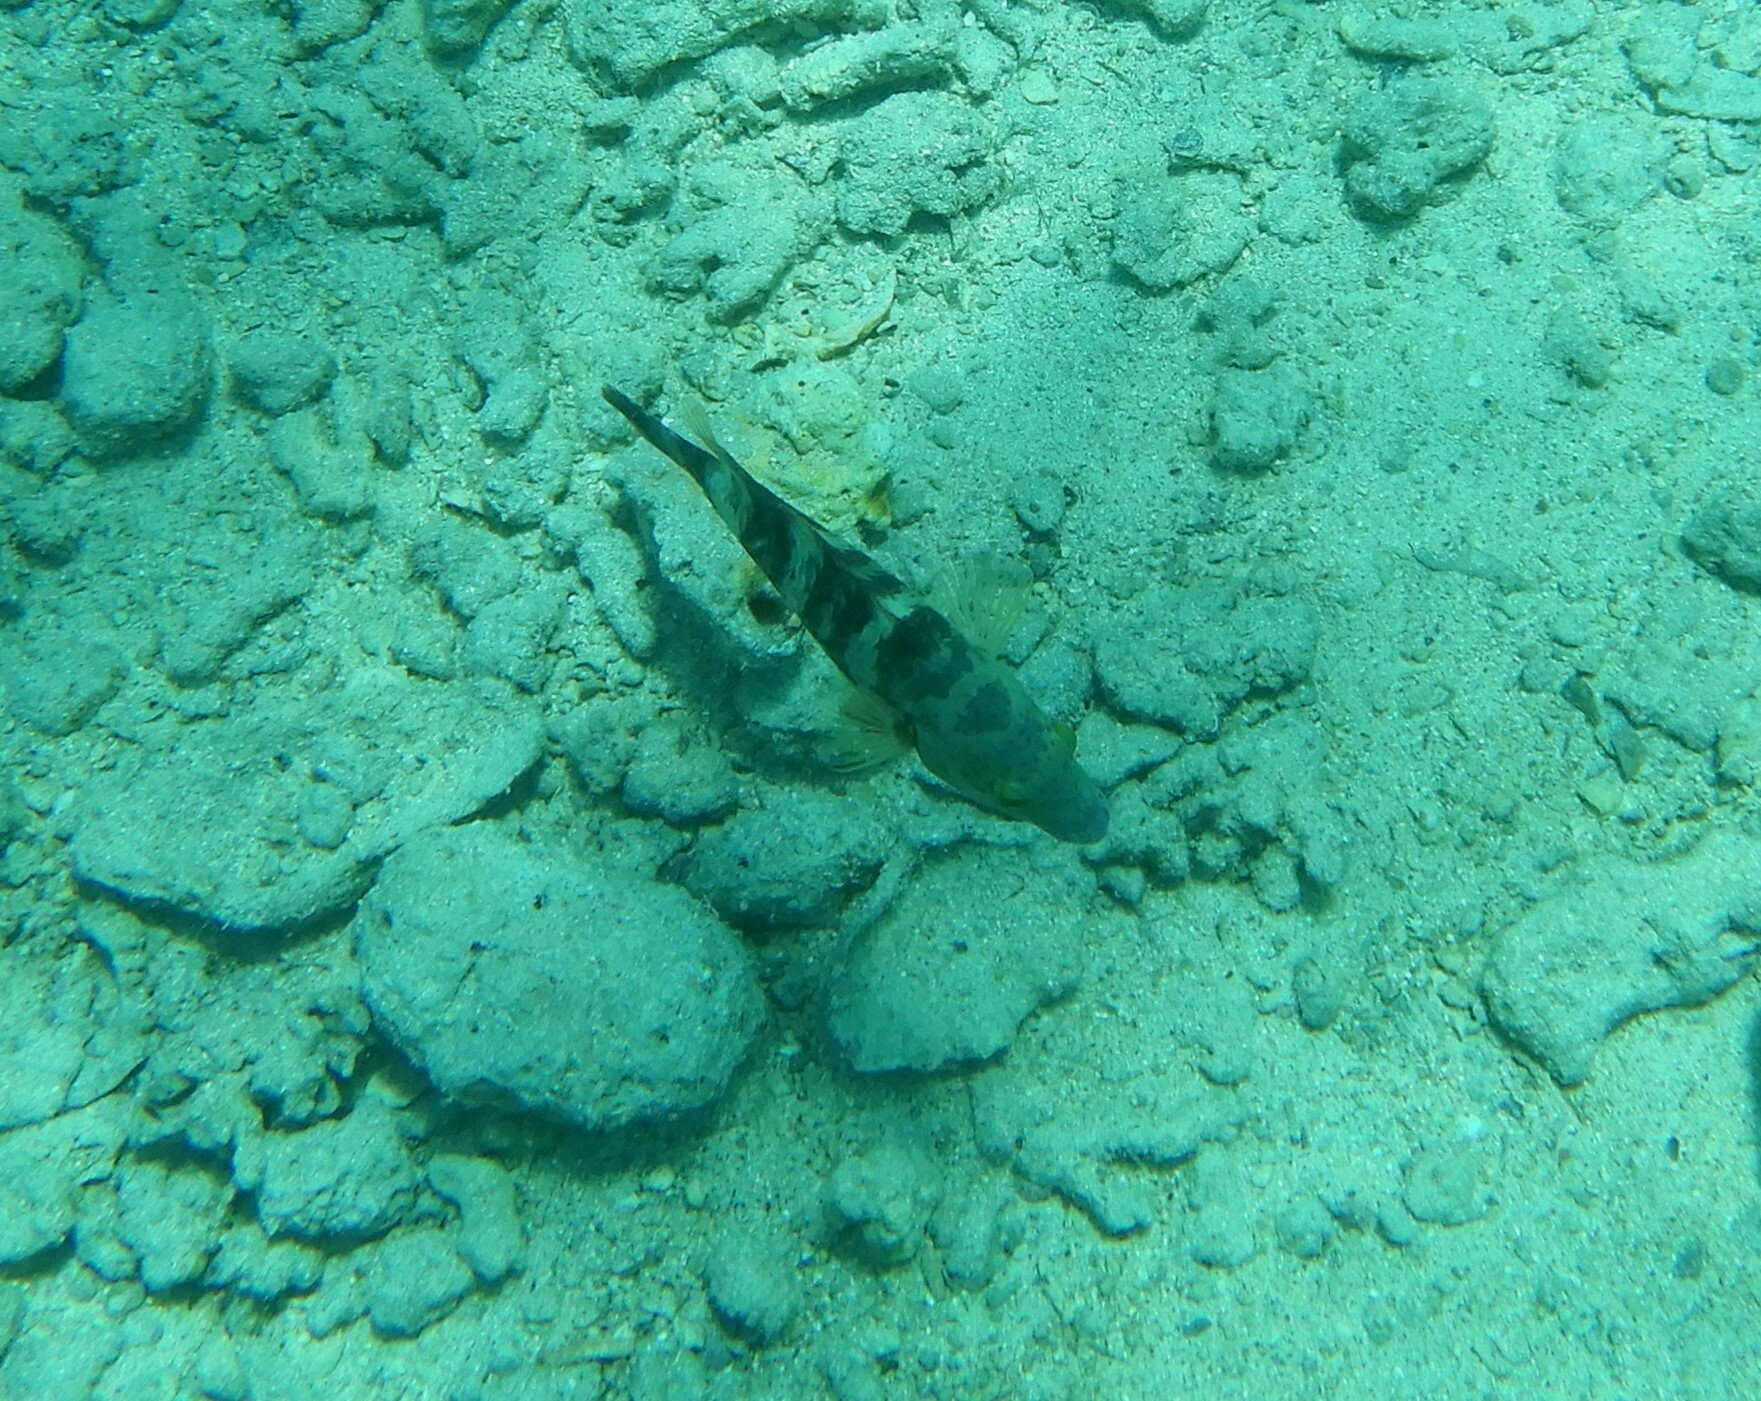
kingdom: Animalia
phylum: Chordata
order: Perciformes
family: Labridae
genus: Cheilinus
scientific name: Cheilinus lunulatus
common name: Broomtail wrasse
